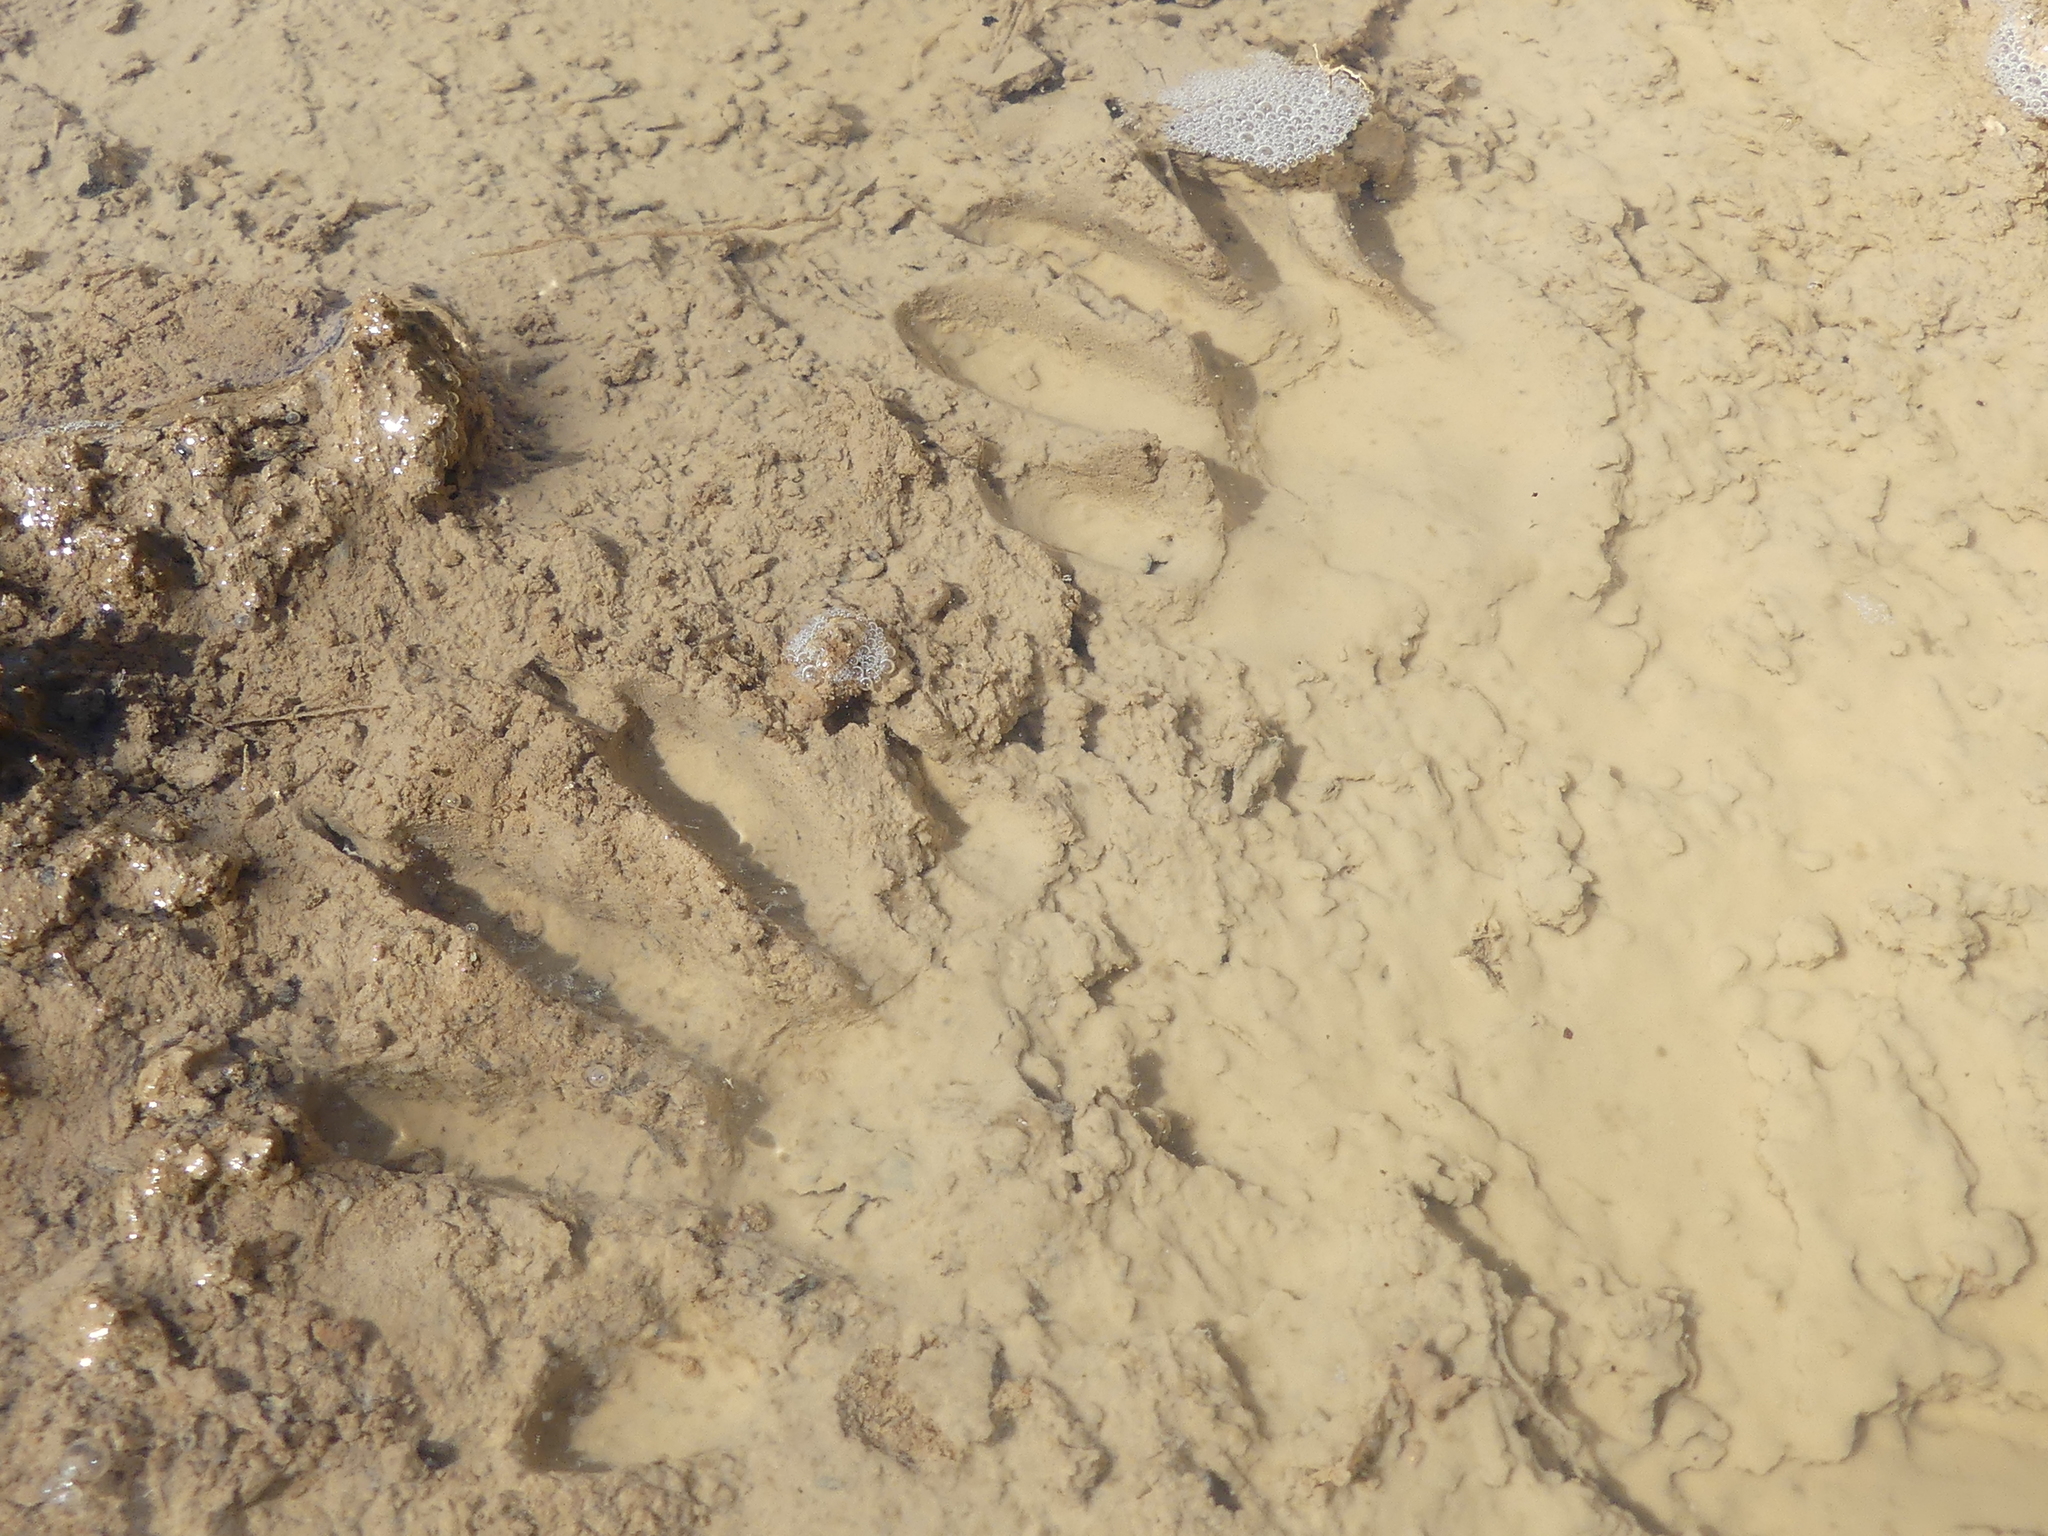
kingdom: Animalia
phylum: Chordata
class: Mammalia
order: Carnivora
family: Procyonidae
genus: Procyon
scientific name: Procyon lotor
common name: Raccoon
